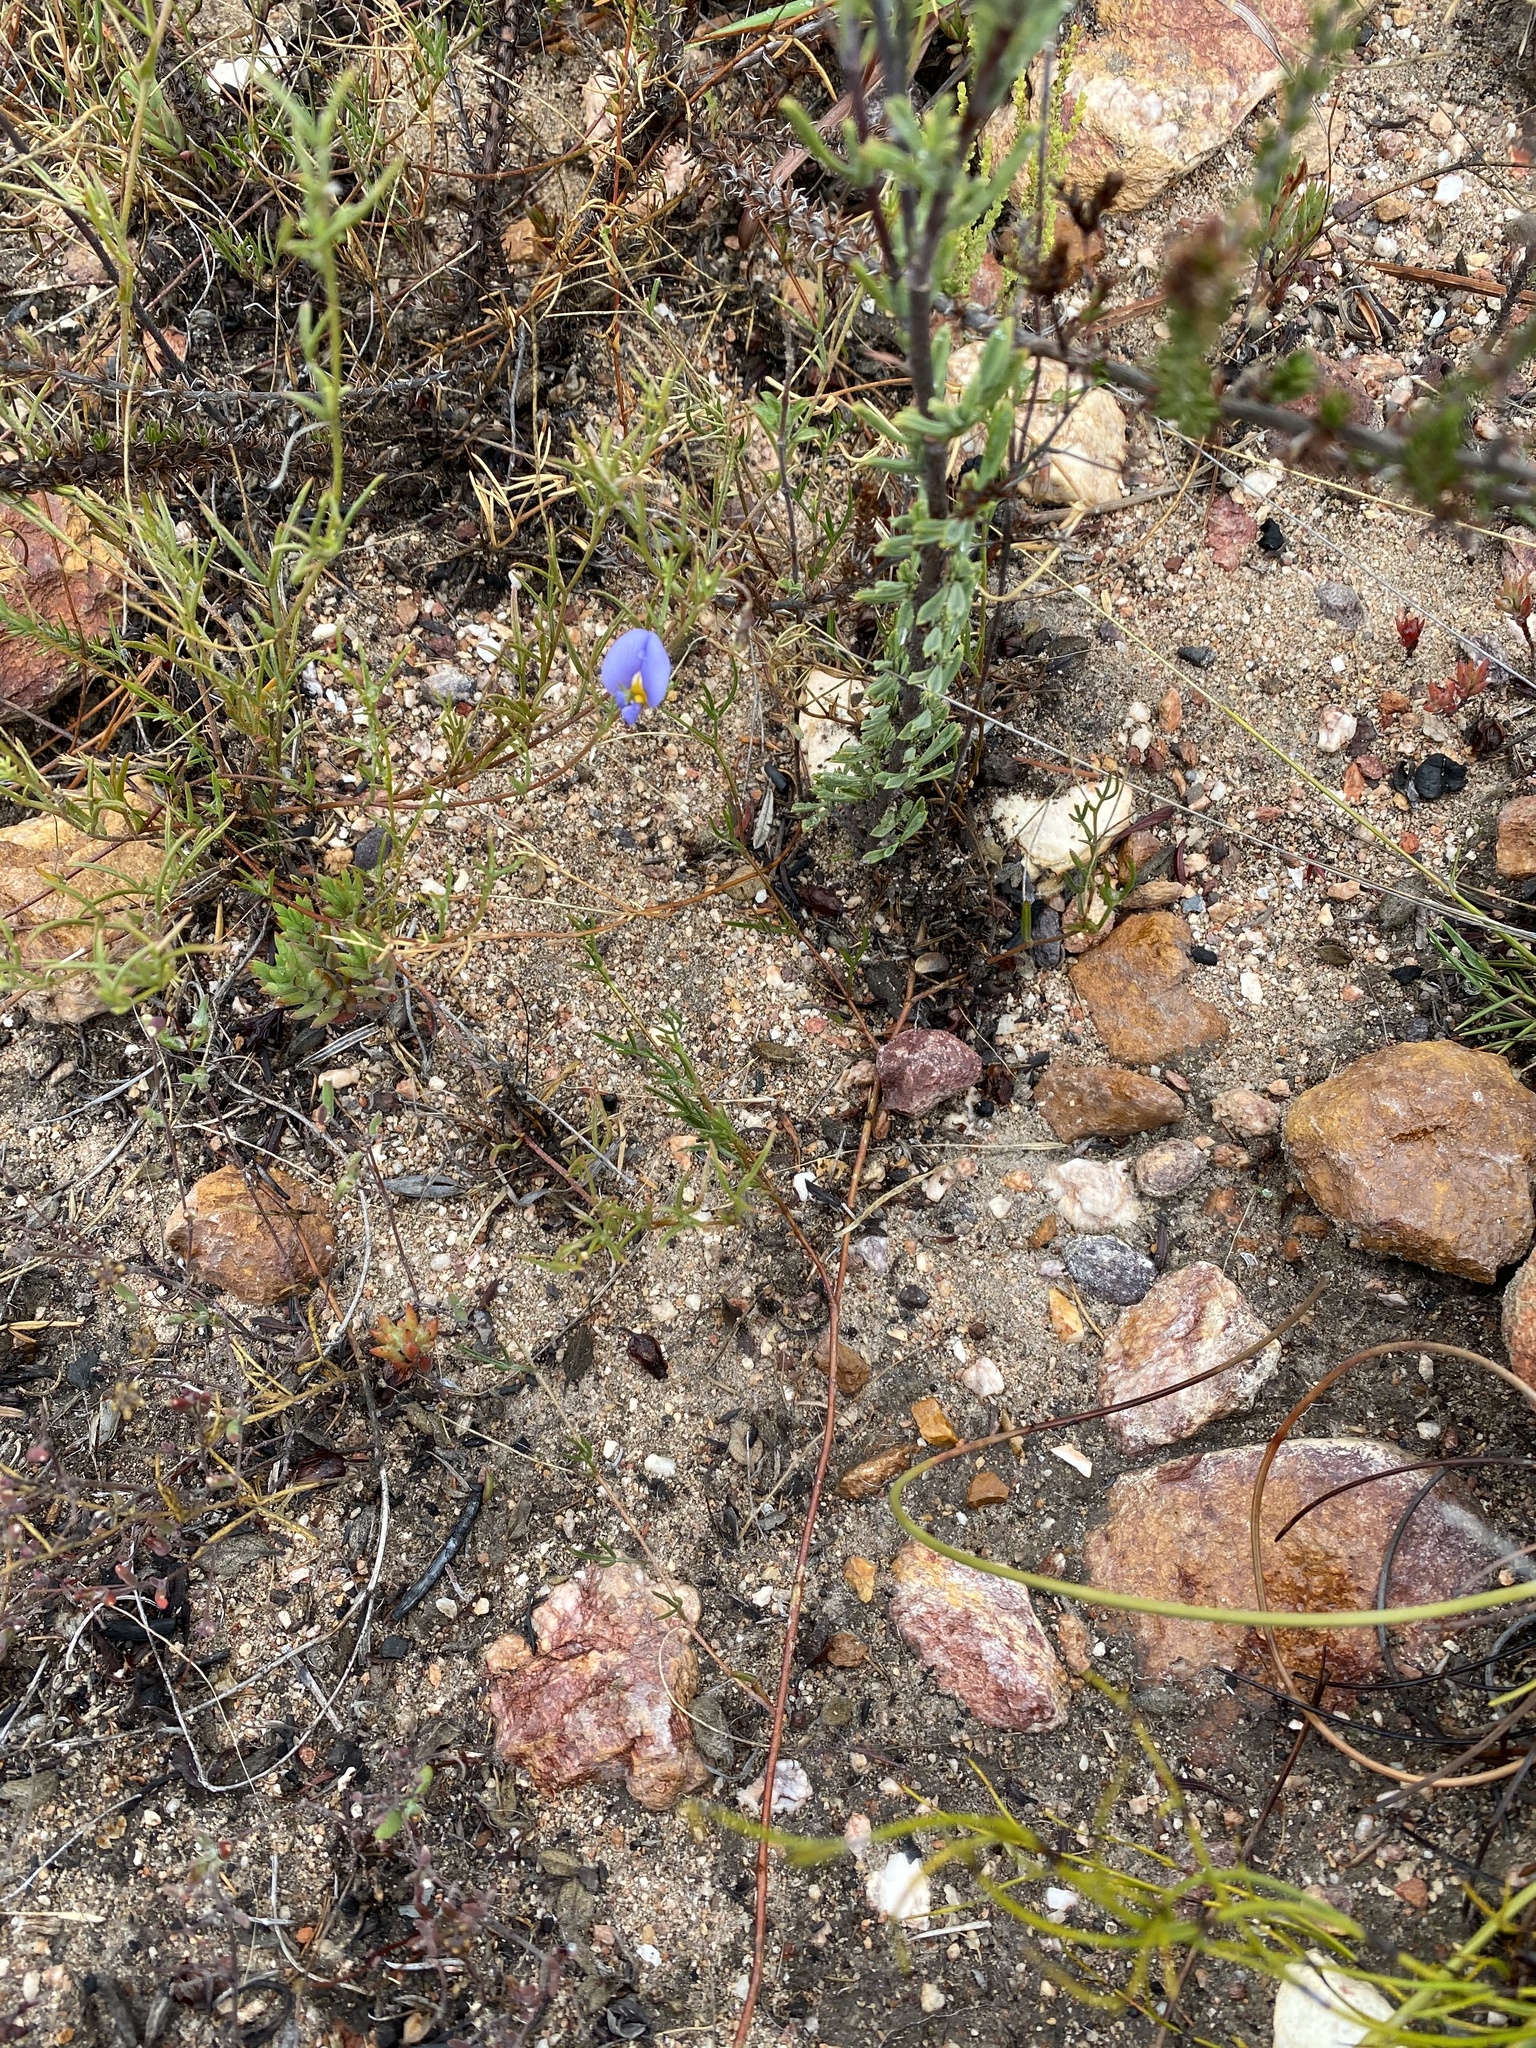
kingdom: Plantae
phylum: Tracheophyta
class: Magnoliopsida
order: Fabales
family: Fabaceae
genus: Lotononis
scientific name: Lotononis filiformis
